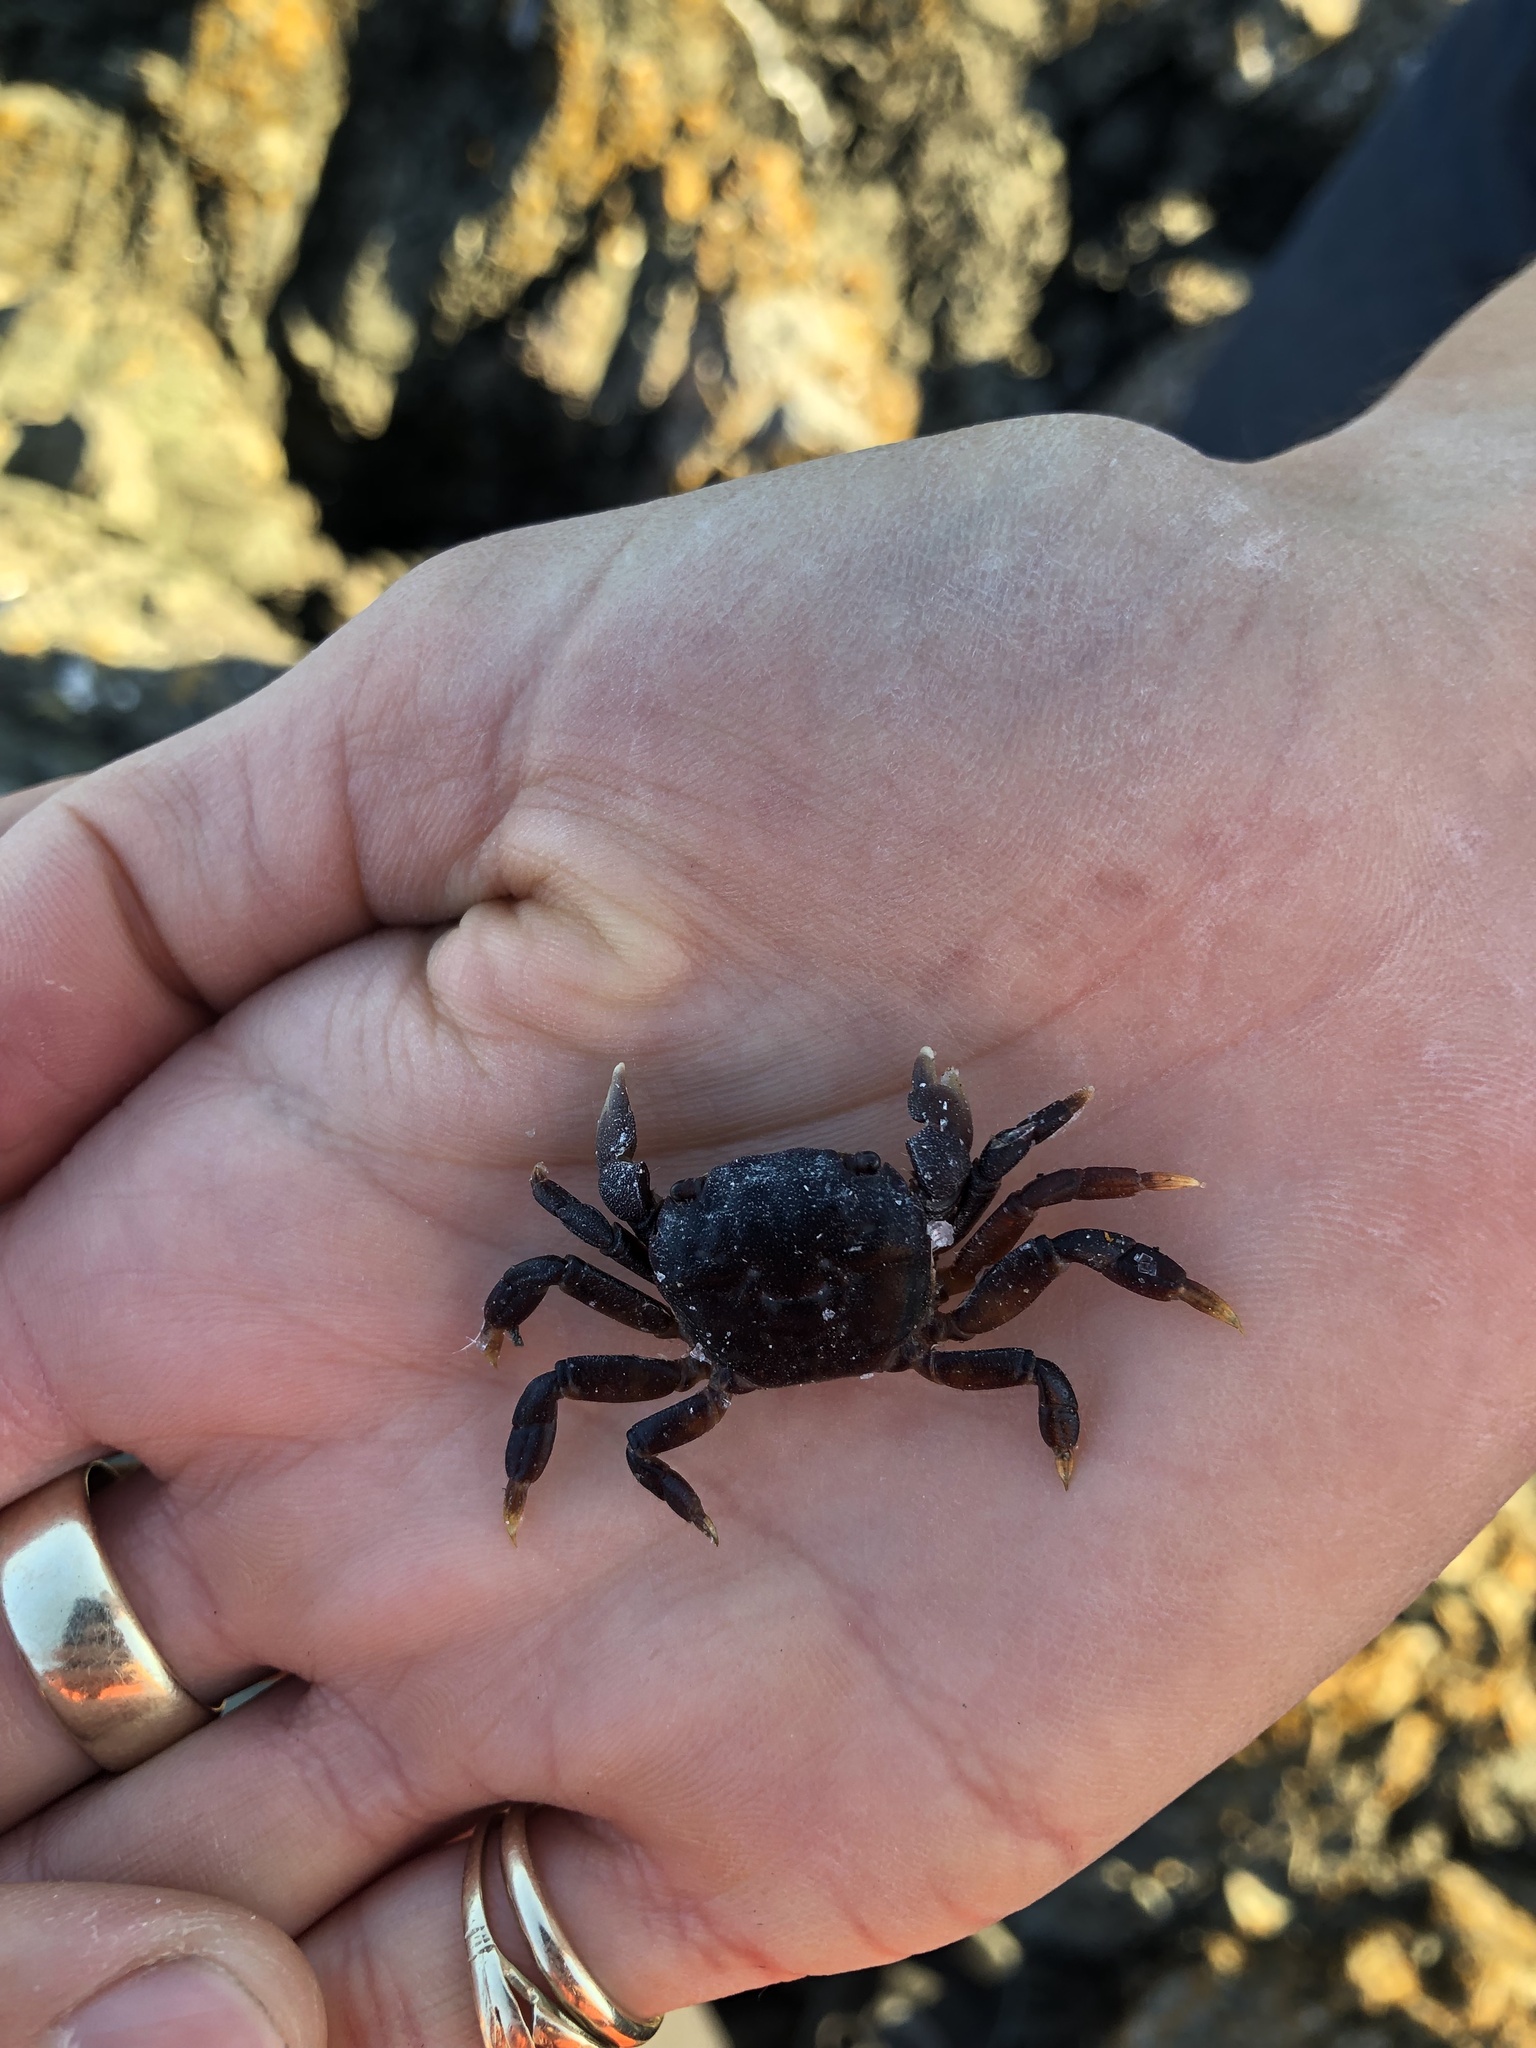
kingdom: Animalia
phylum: Arthropoda
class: Malacostraca
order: Decapoda
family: Varunidae
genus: Hemigrapsus
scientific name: Hemigrapsus nudus
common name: Purple shore crab
